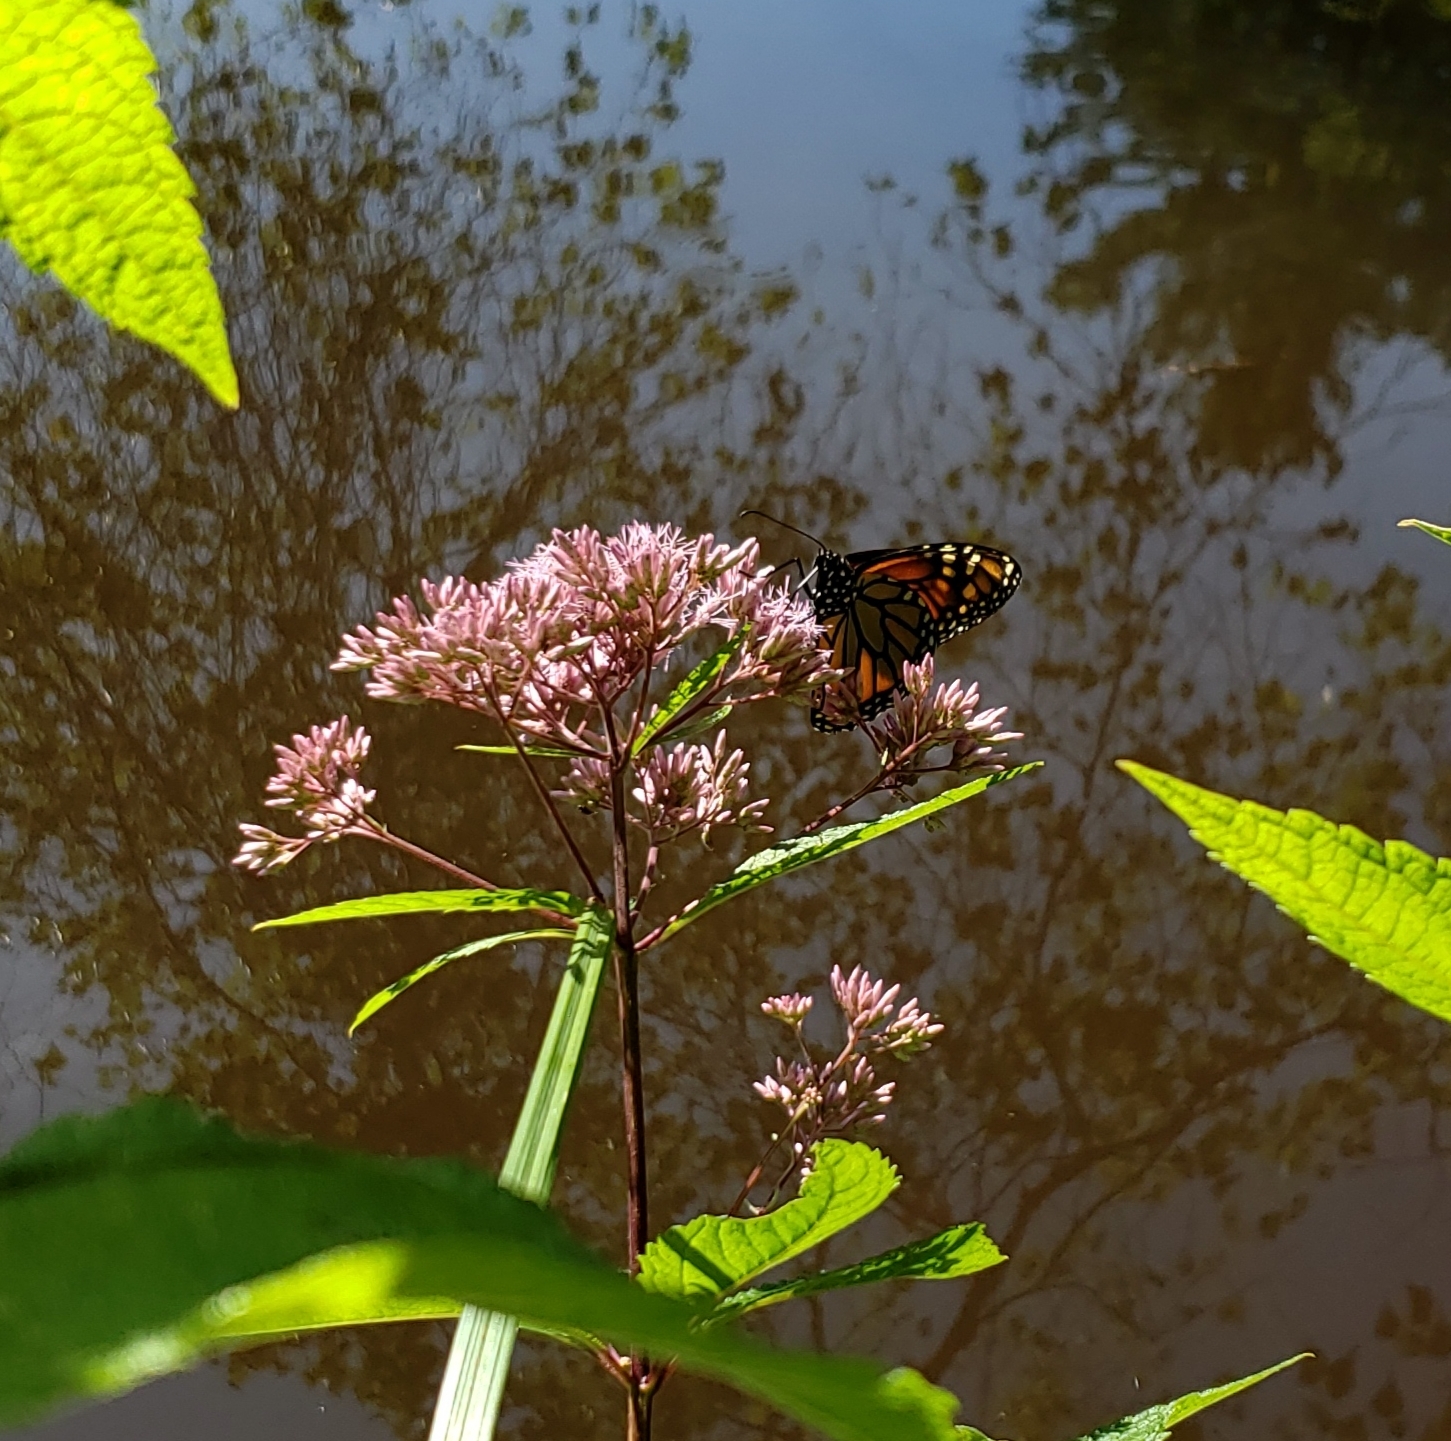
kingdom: Animalia
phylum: Arthropoda
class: Insecta
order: Lepidoptera
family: Nymphalidae
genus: Danaus
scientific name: Danaus plexippus
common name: Monarch
